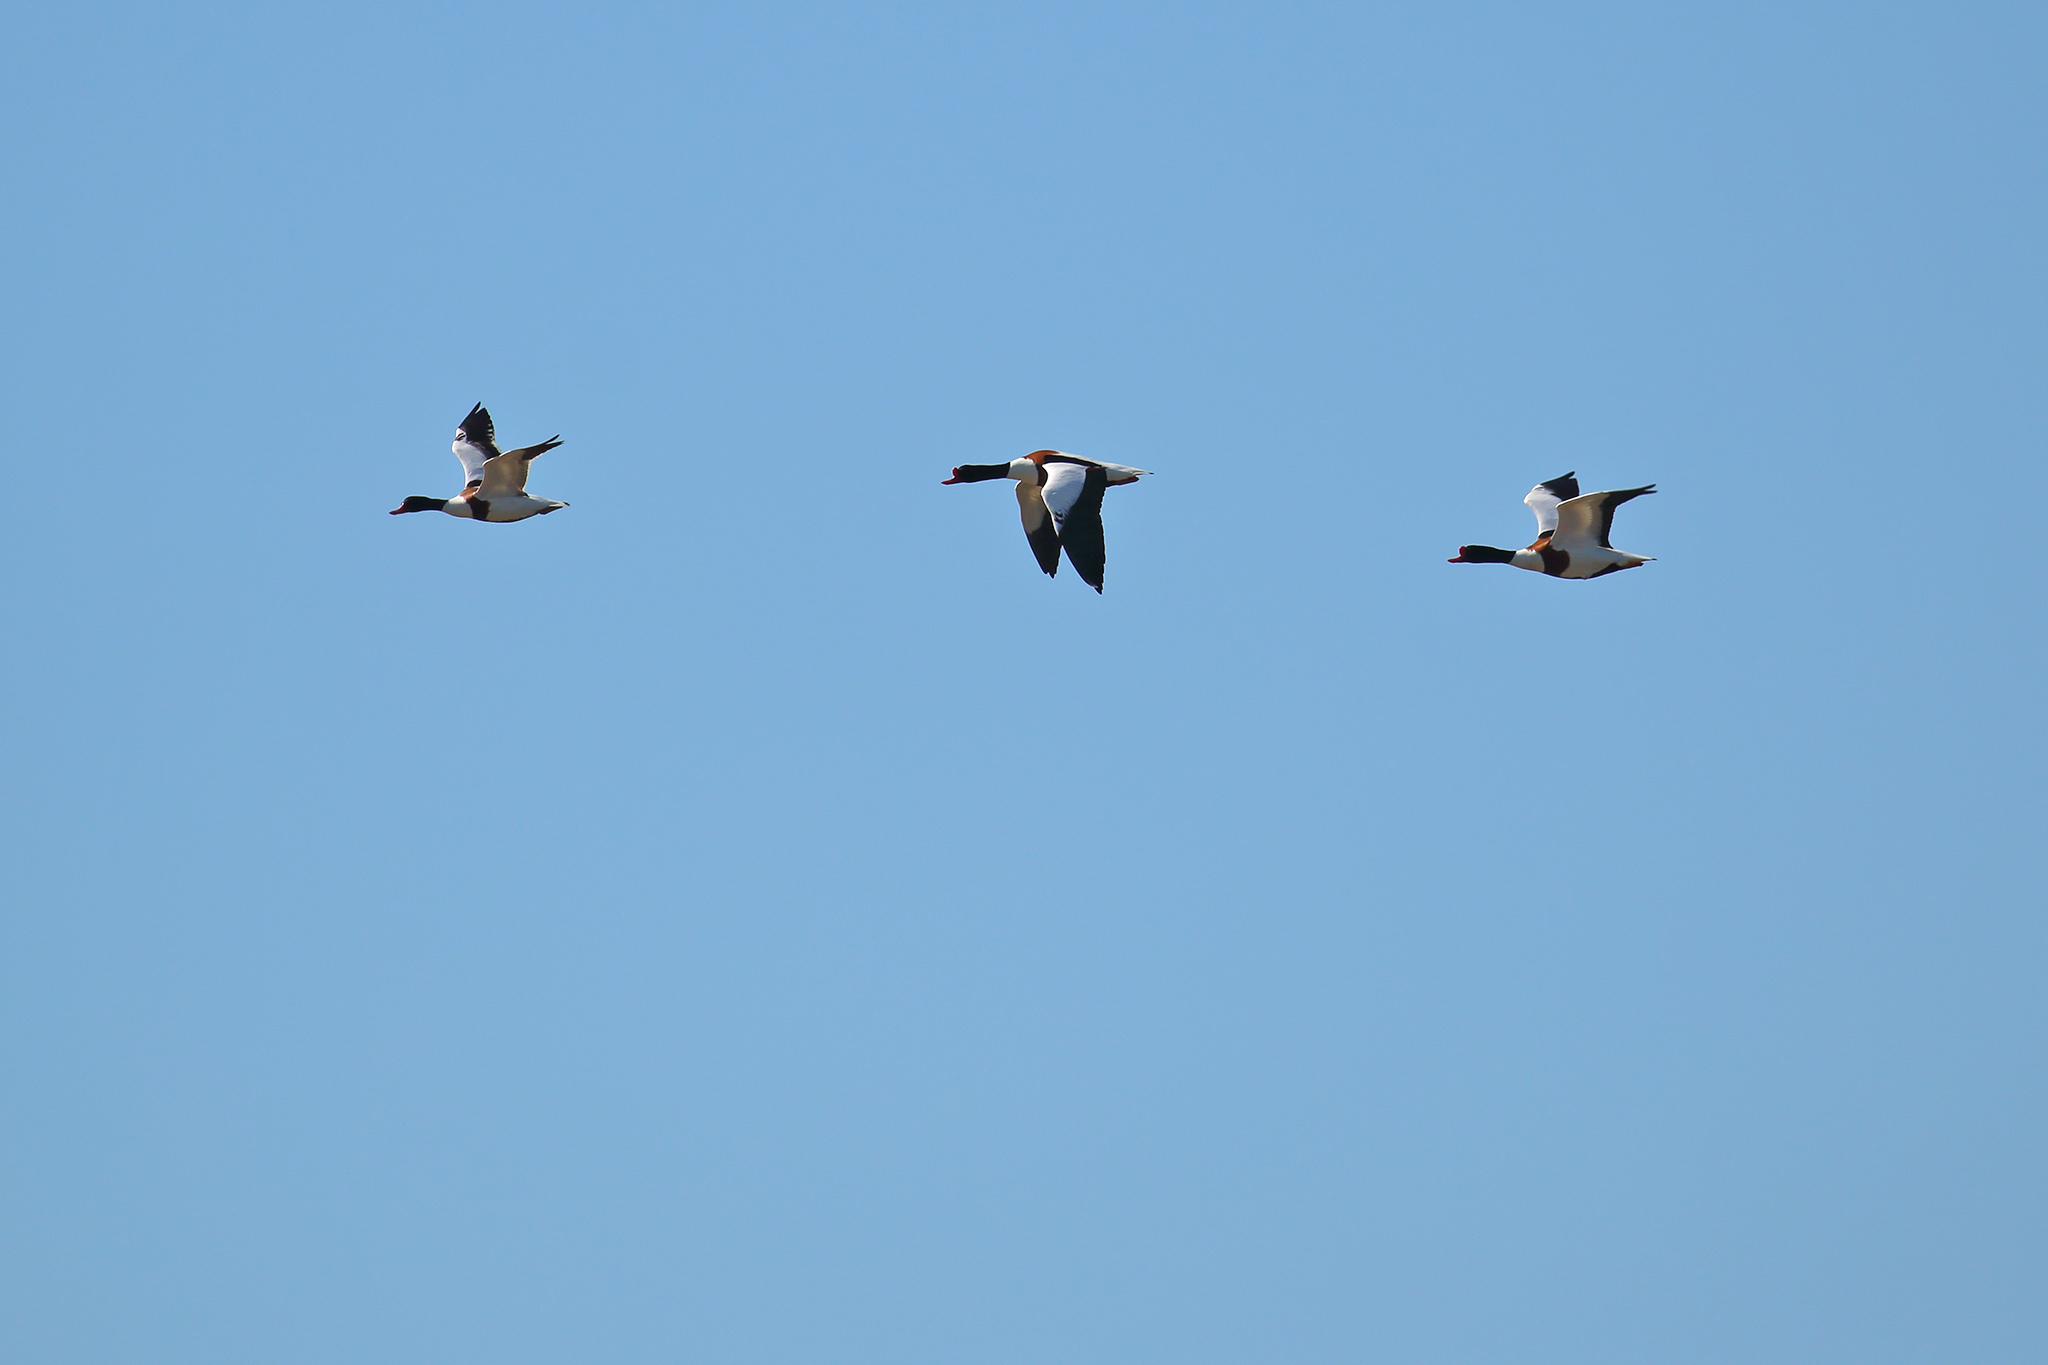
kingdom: Animalia
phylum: Chordata
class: Aves
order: Anseriformes
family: Anatidae
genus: Tadorna
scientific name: Tadorna tadorna
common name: Common shelduck
